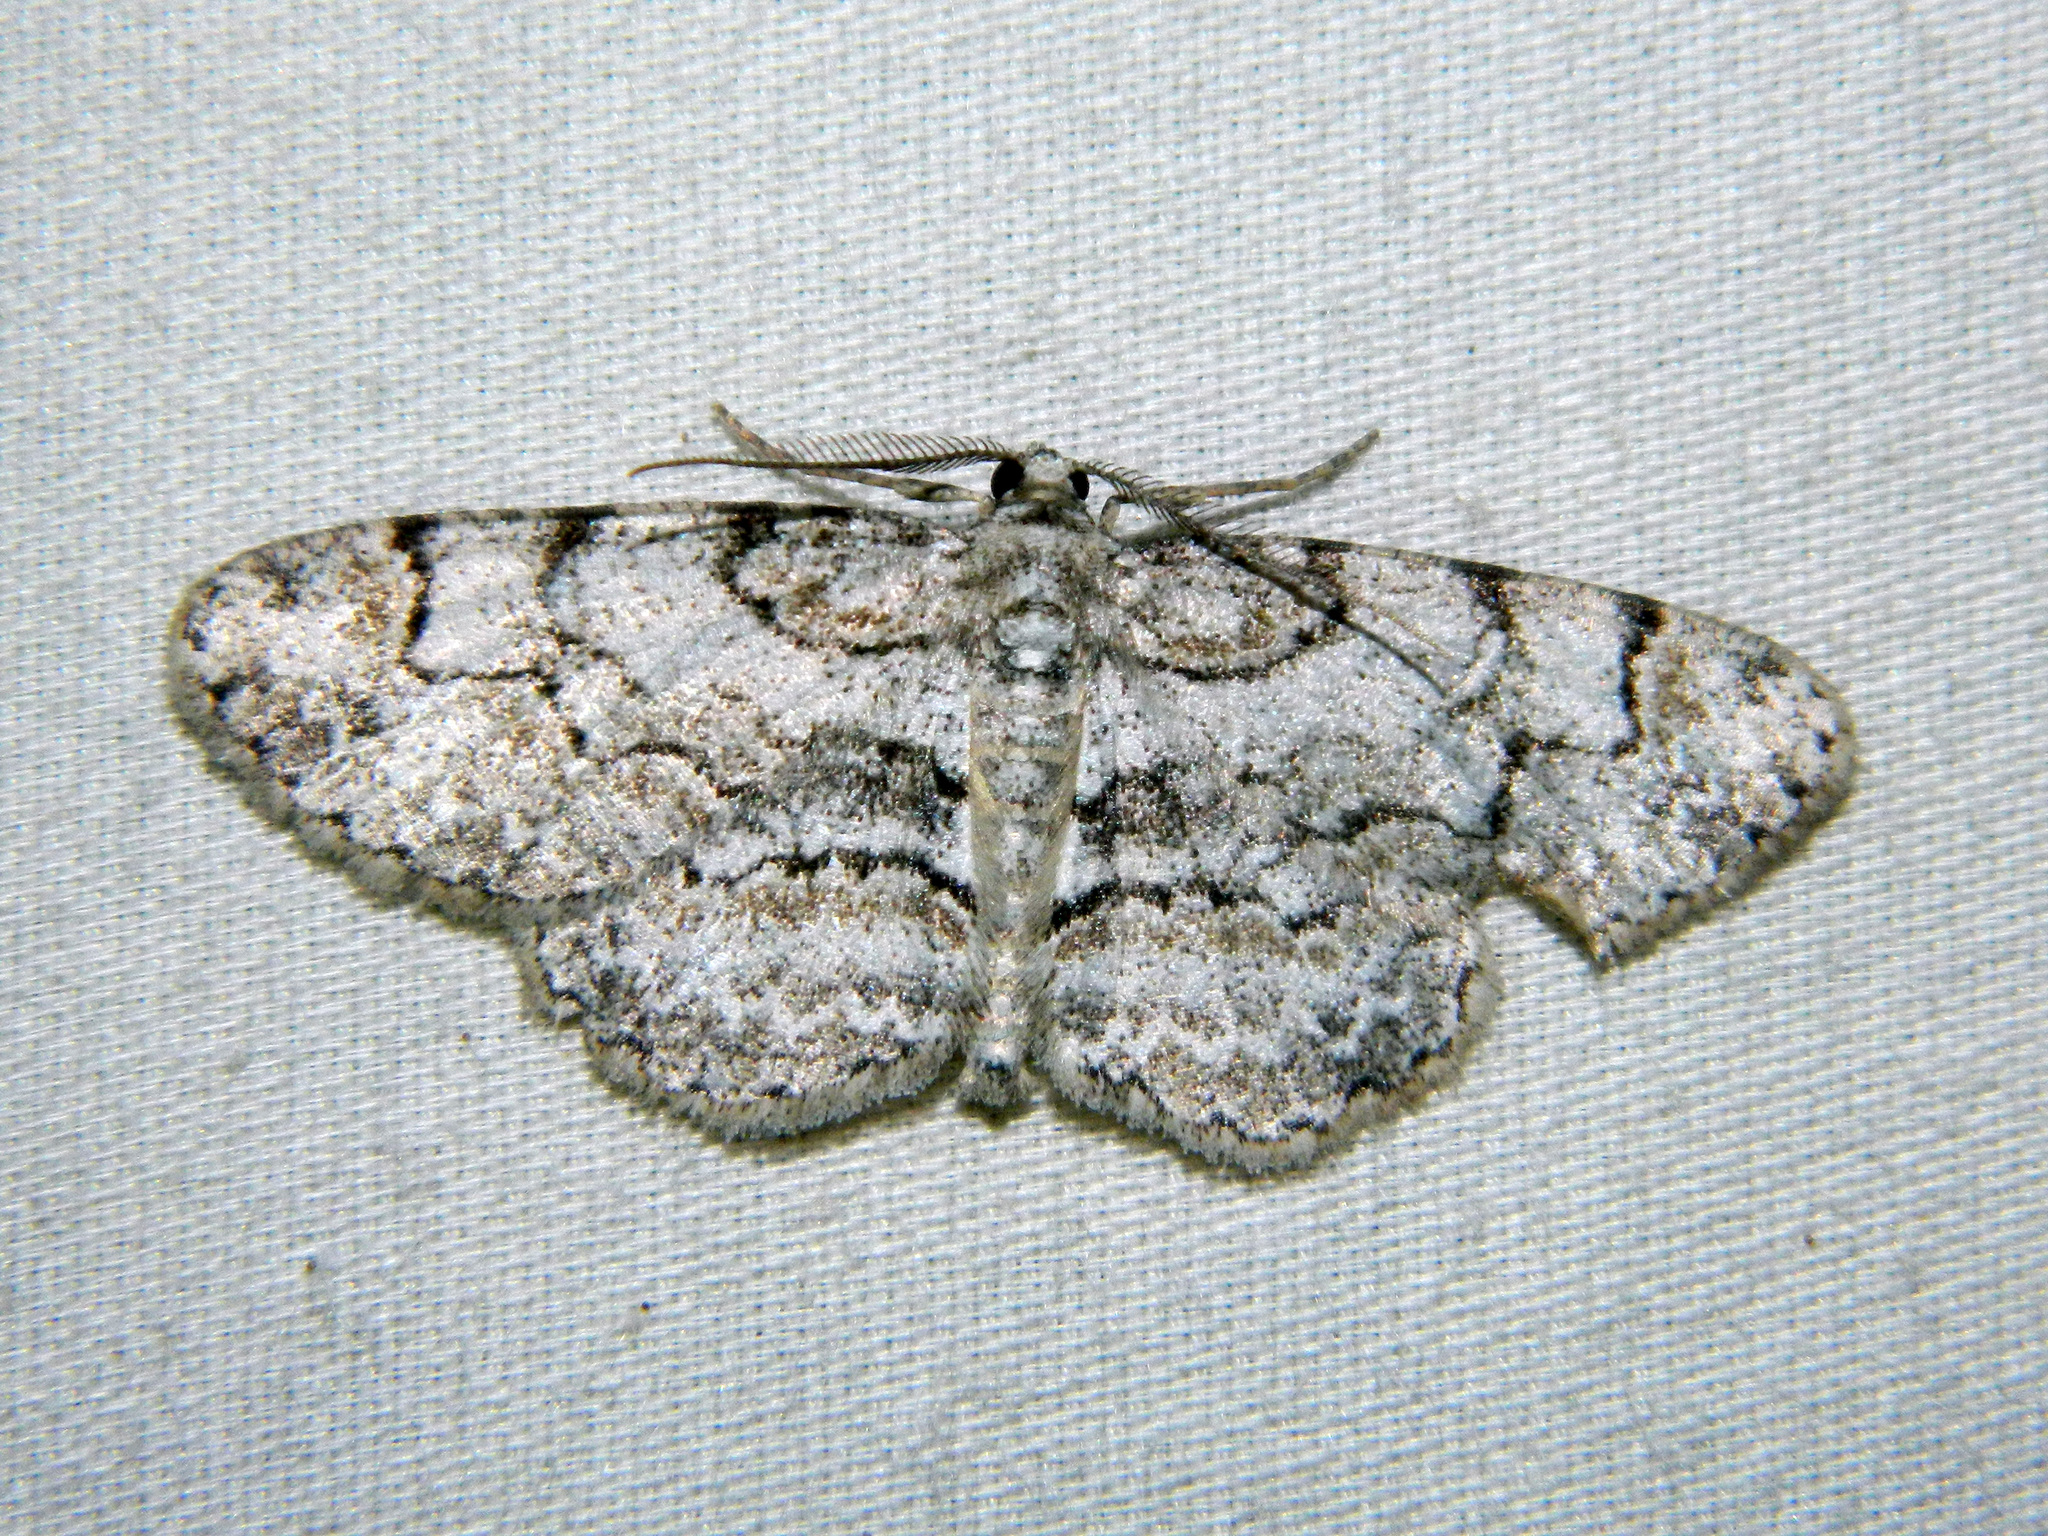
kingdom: Animalia
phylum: Arthropoda
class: Insecta
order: Lepidoptera
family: Geometridae
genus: Iridopsis
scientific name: Iridopsis ephyraria
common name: Pale-winged gray
